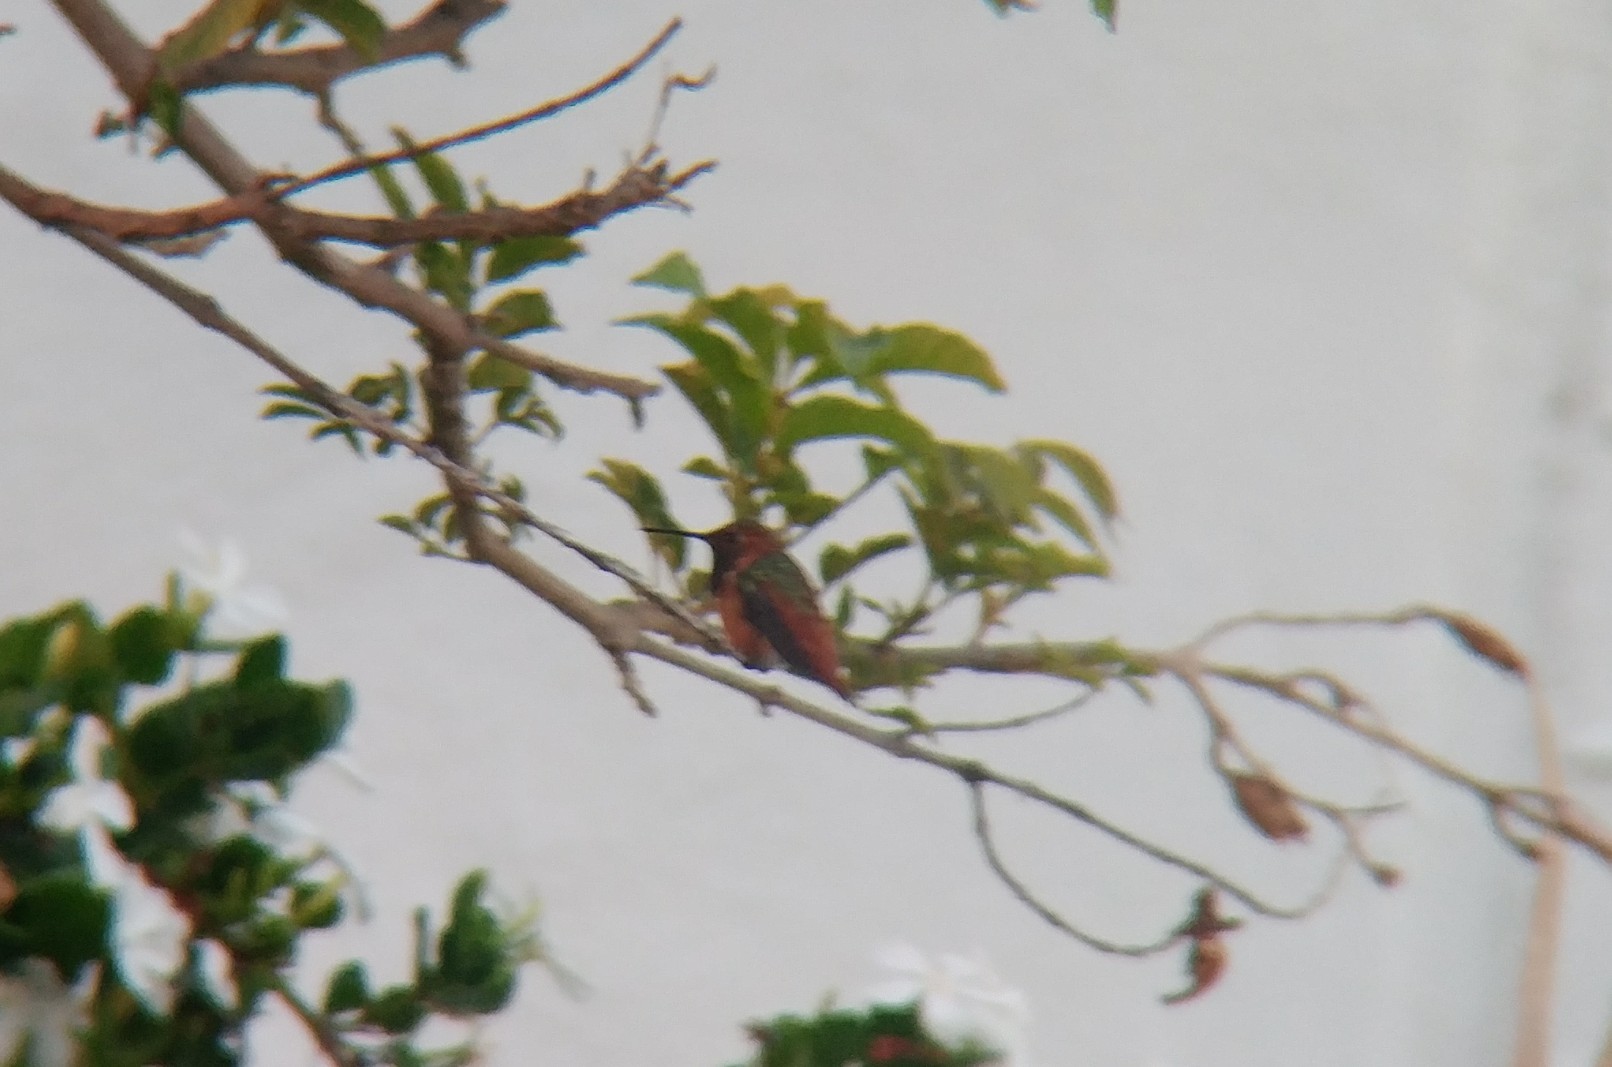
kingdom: Animalia
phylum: Chordata
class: Aves
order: Apodiformes
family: Trochilidae
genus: Selasphorus
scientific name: Selasphorus sasin
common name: Allen's hummingbird
